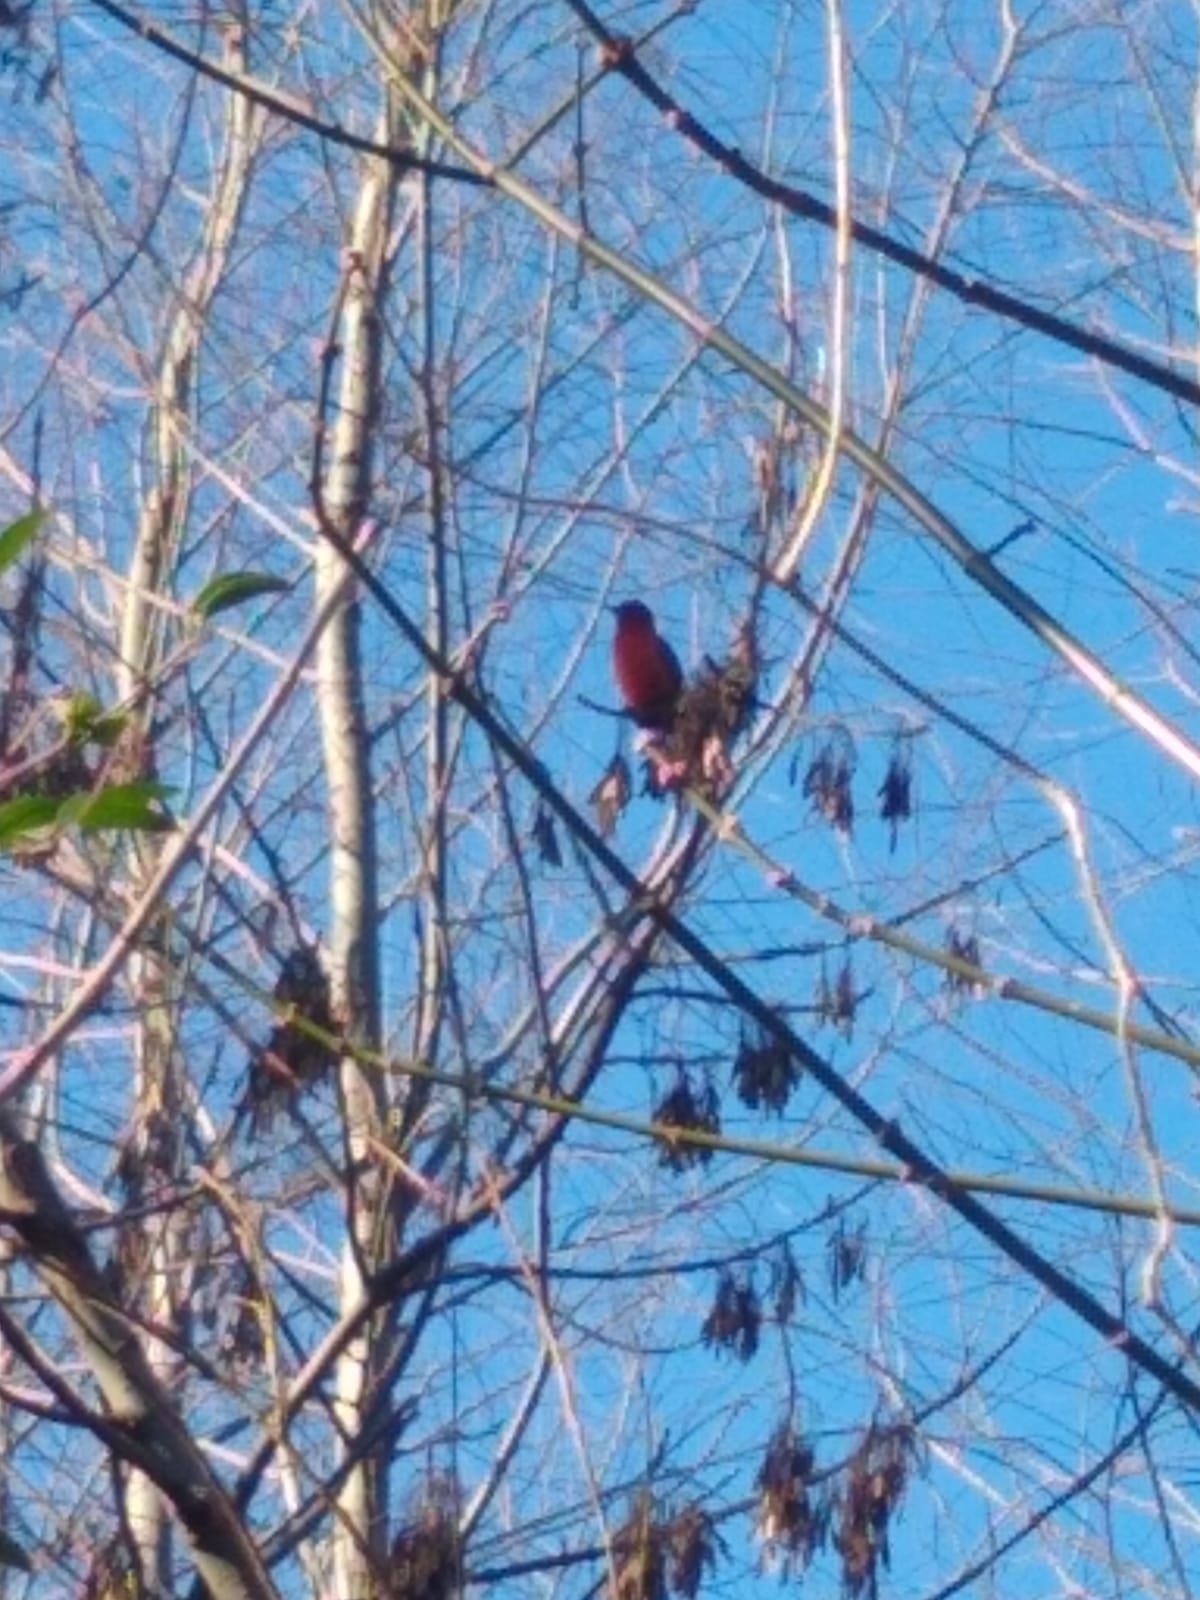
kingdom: Animalia
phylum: Chordata
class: Aves
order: Passeriformes
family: Cardinalidae
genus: Piranga
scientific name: Piranga flava
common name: Red tanager
